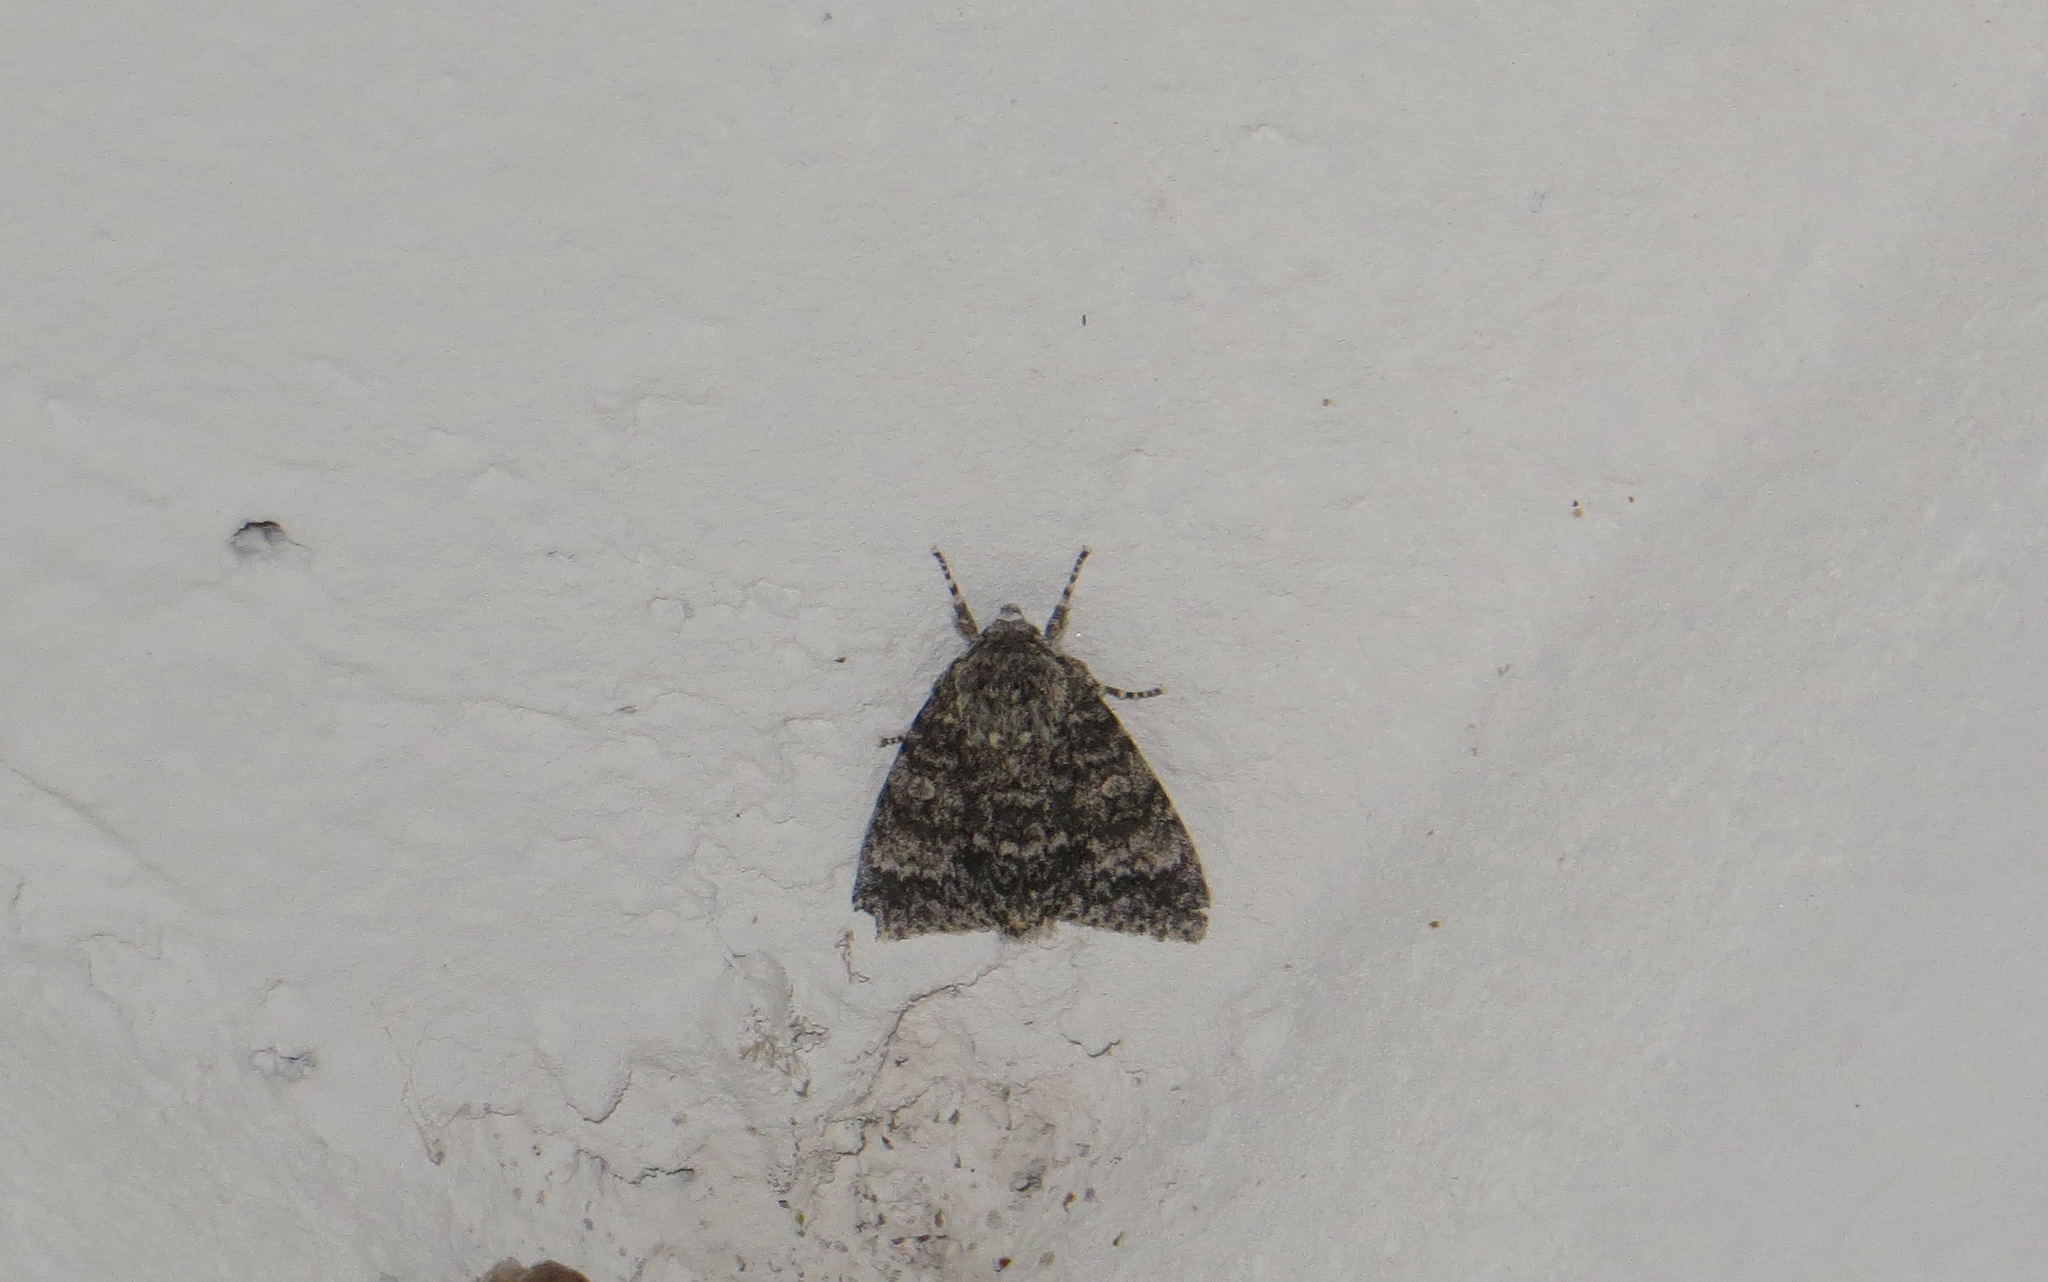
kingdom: Animalia
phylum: Arthropoda
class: Insecta
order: Lepidoptera
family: Noctuidae
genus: Acronicta
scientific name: Acronicta megacephala
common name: Poplar grey
